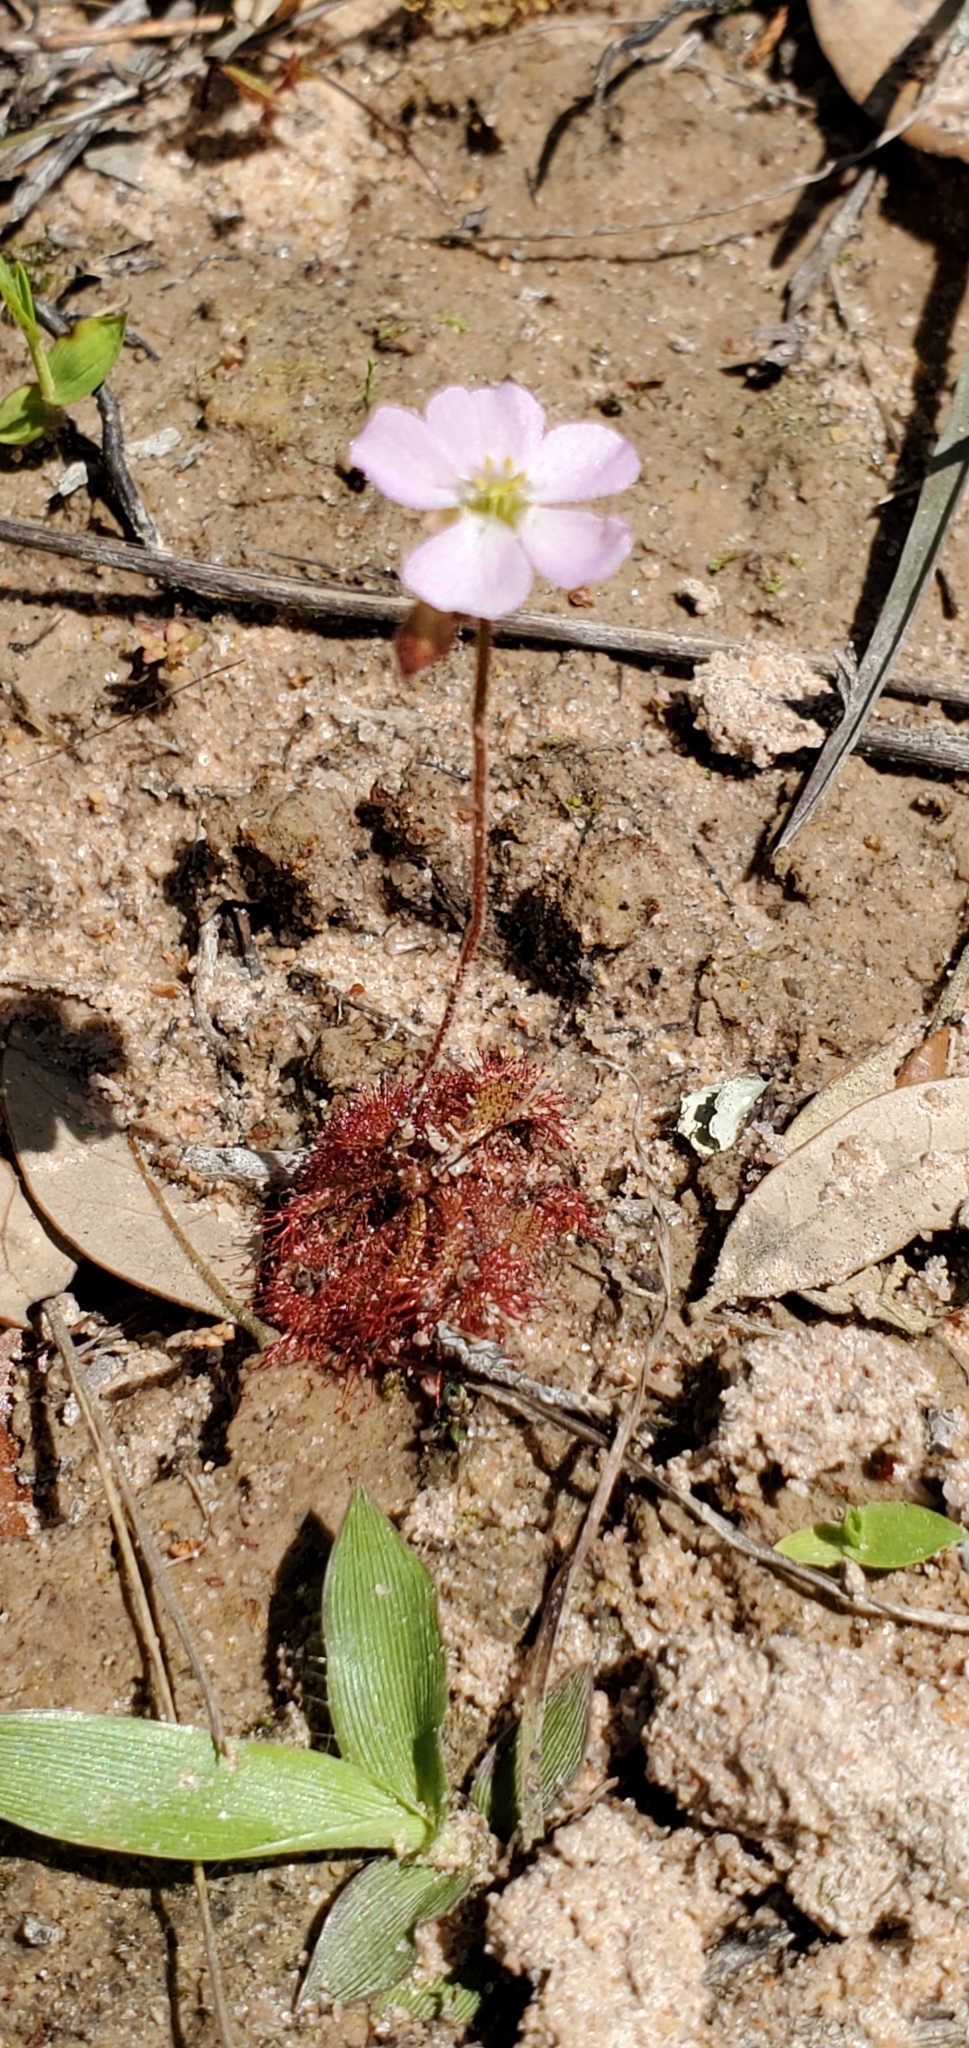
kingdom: Plantae
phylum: Tracheophyta
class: Magnoliopsida
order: Caryophyllales
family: Droseraceae
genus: Drosera
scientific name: Drosera brevifolia
